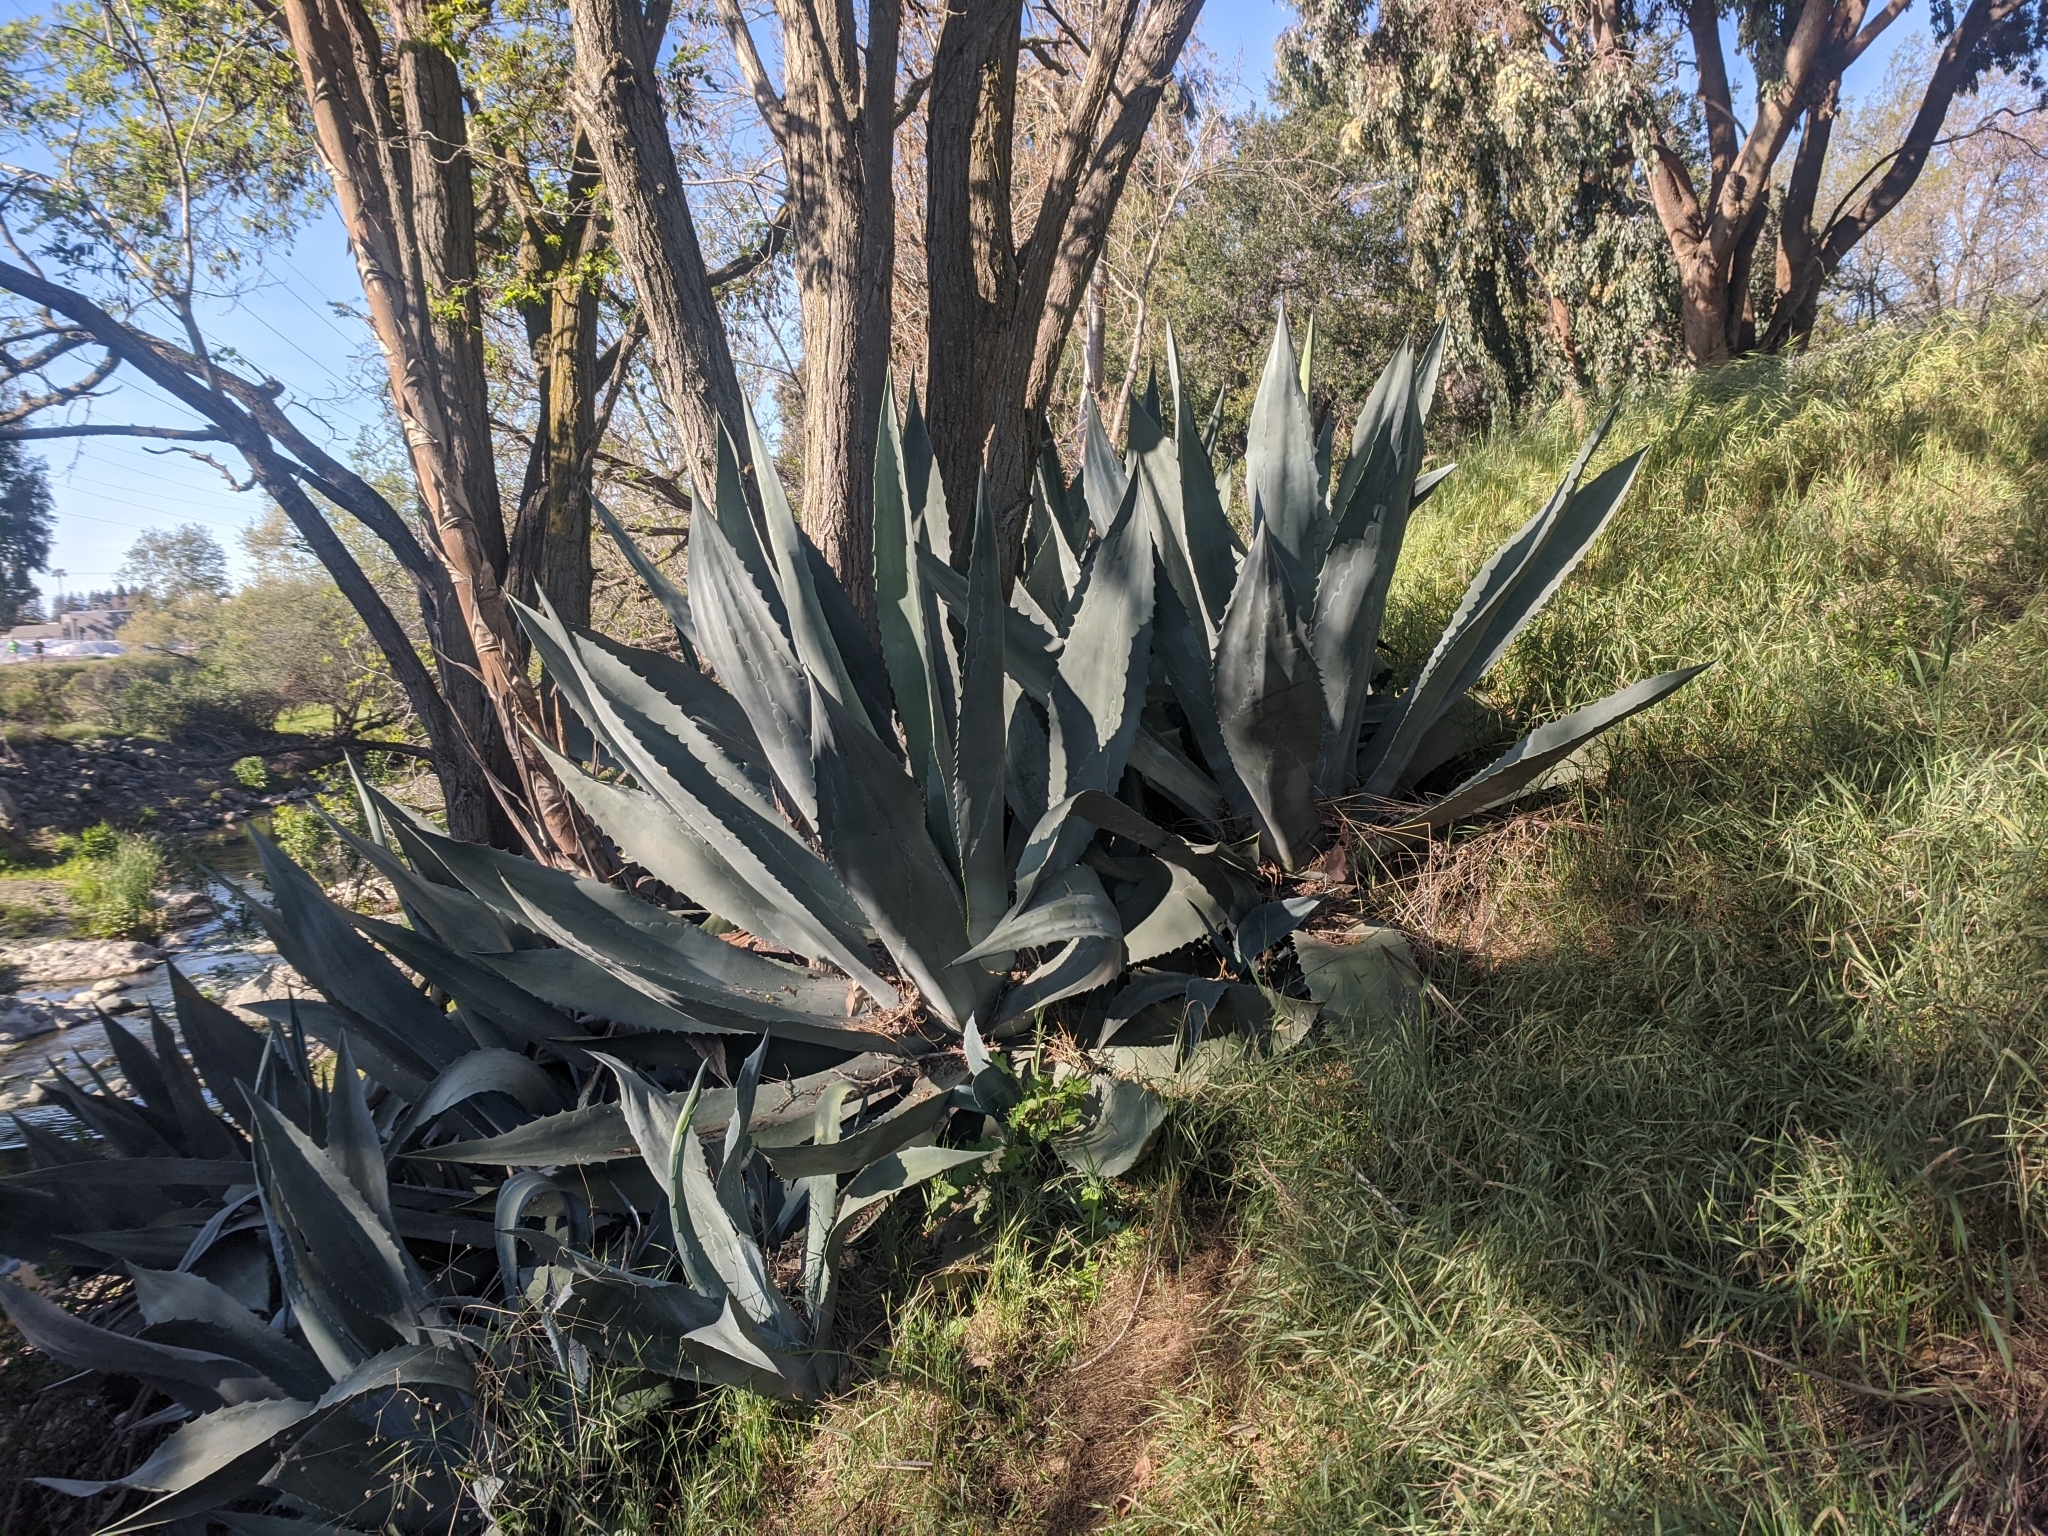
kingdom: Plantae
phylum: Tracheophyta
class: Liliopsida
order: Asparagales
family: Asparagaceae
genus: Agave
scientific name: Agave americana
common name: Centuryplant
